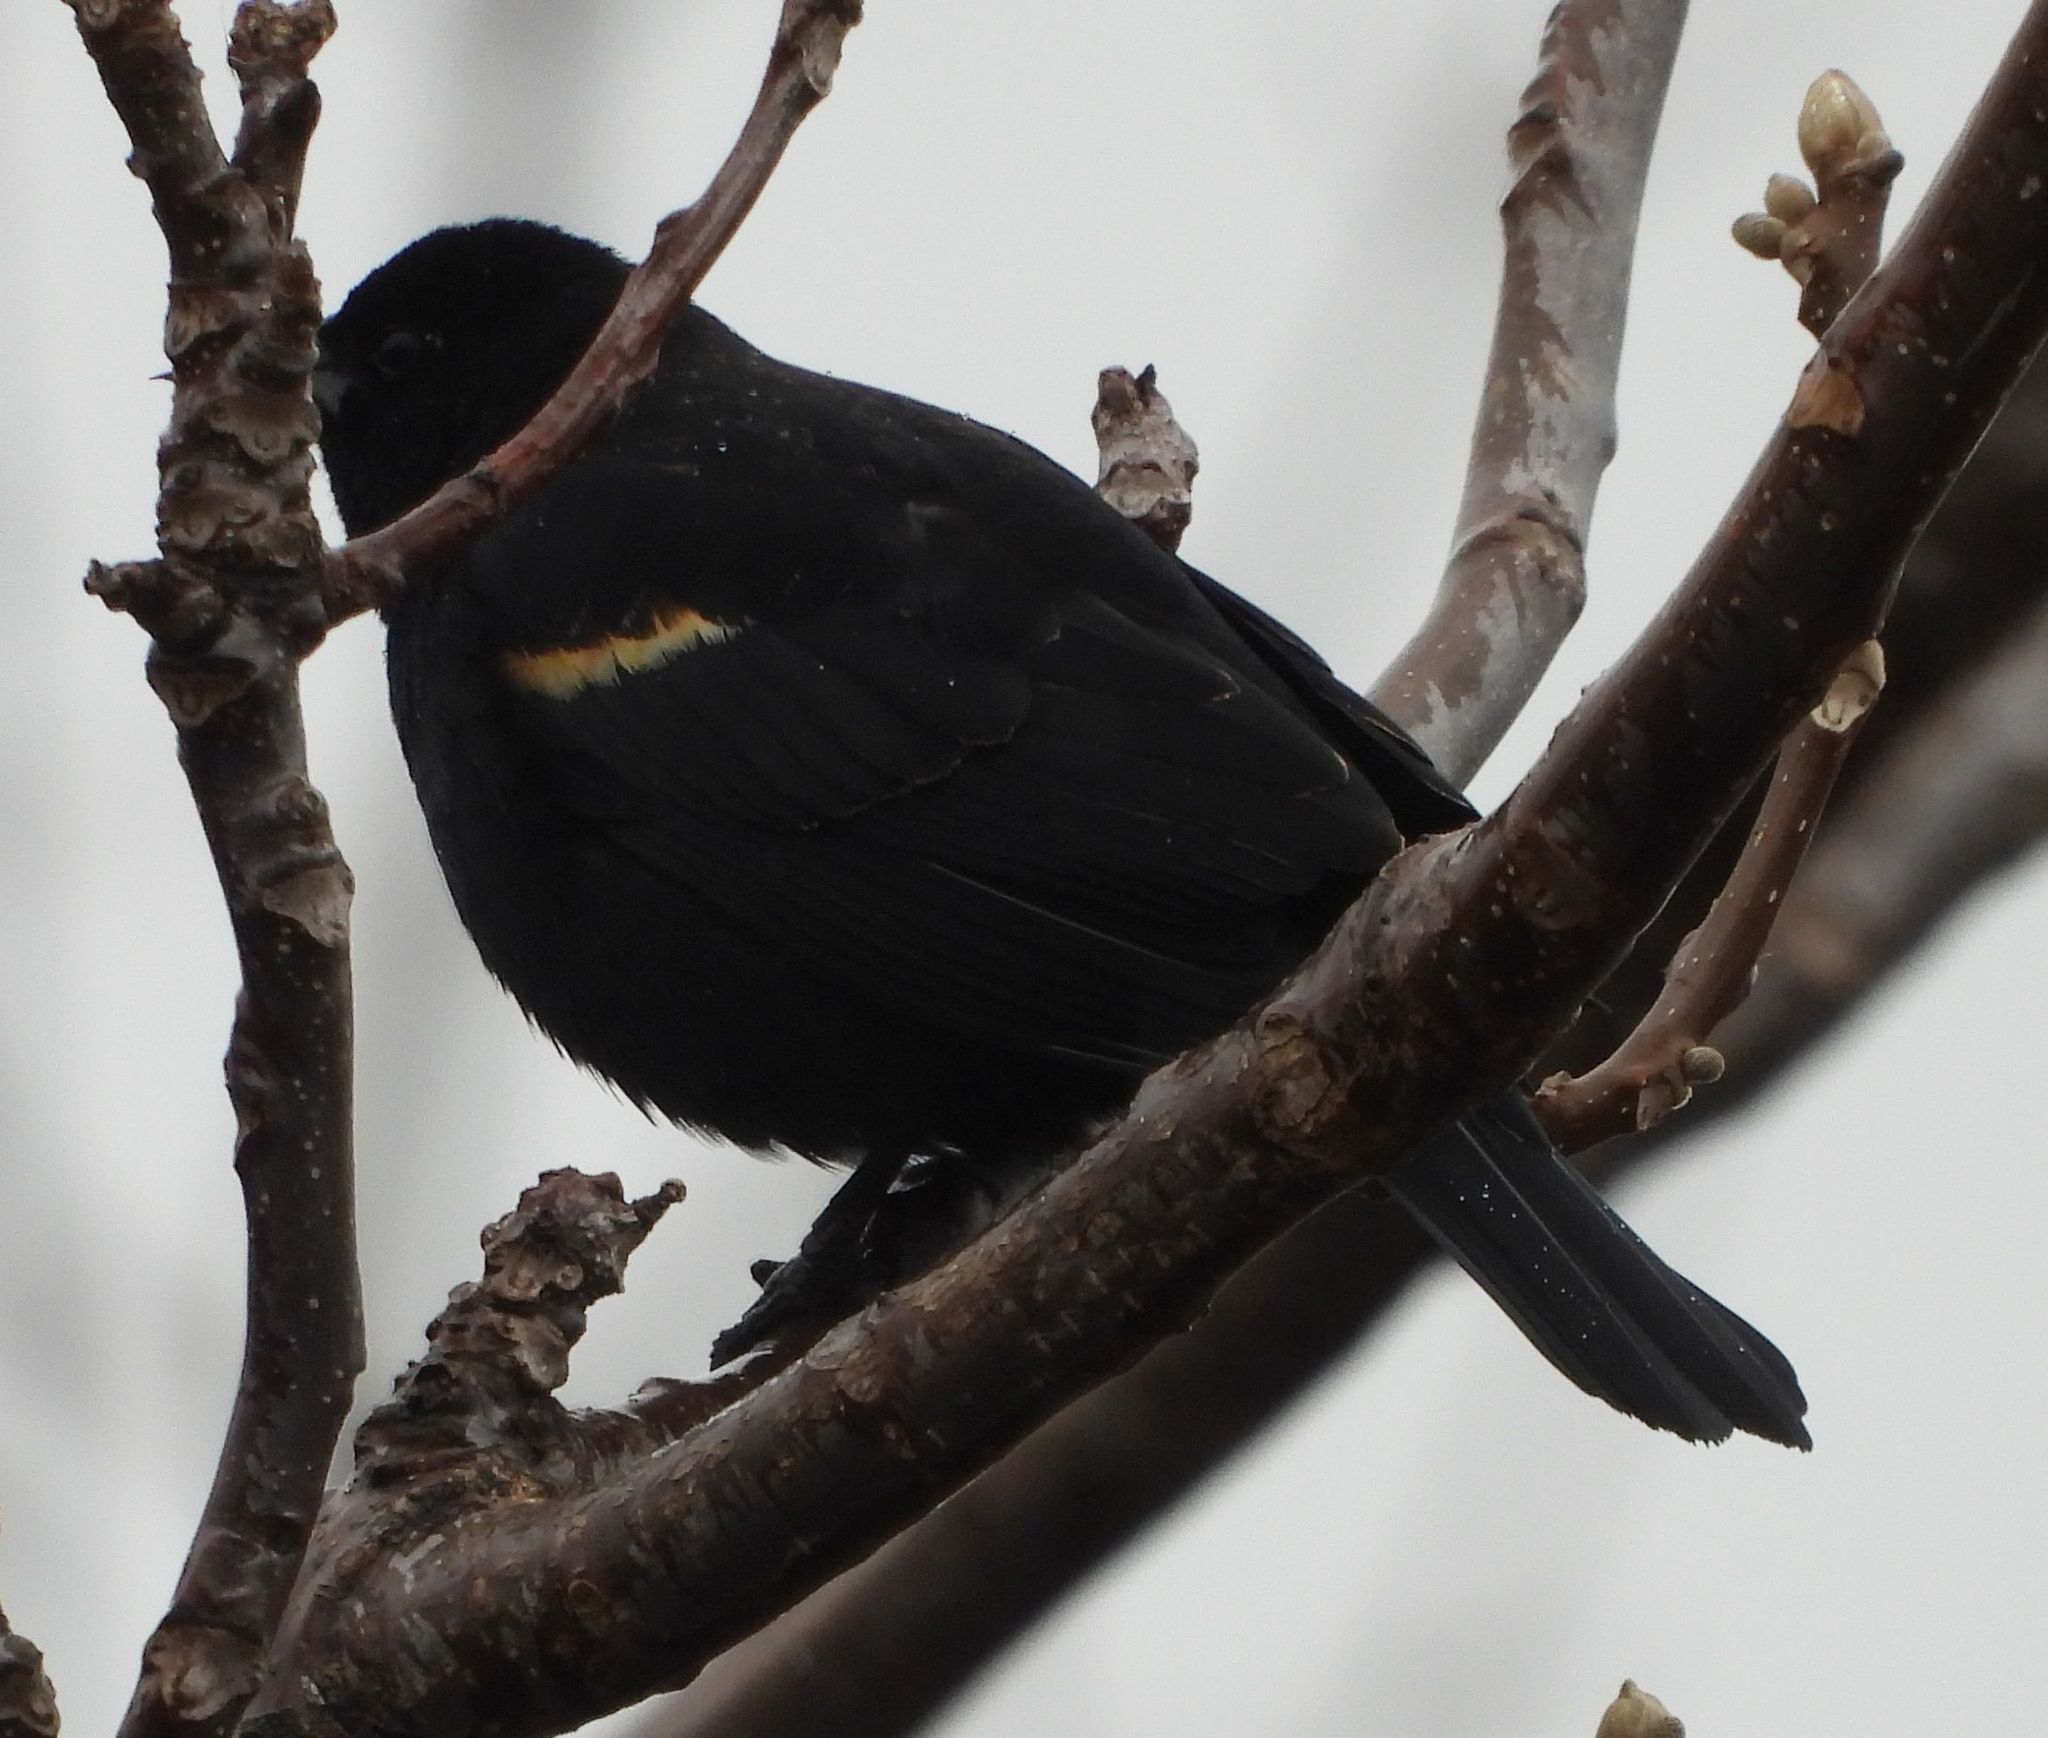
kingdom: Animalia
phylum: Chordata
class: Aves
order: Passeriformes
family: Icteridae
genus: Agelaius
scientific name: Agelaius phoeniceus
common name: Red-winged blackbird
